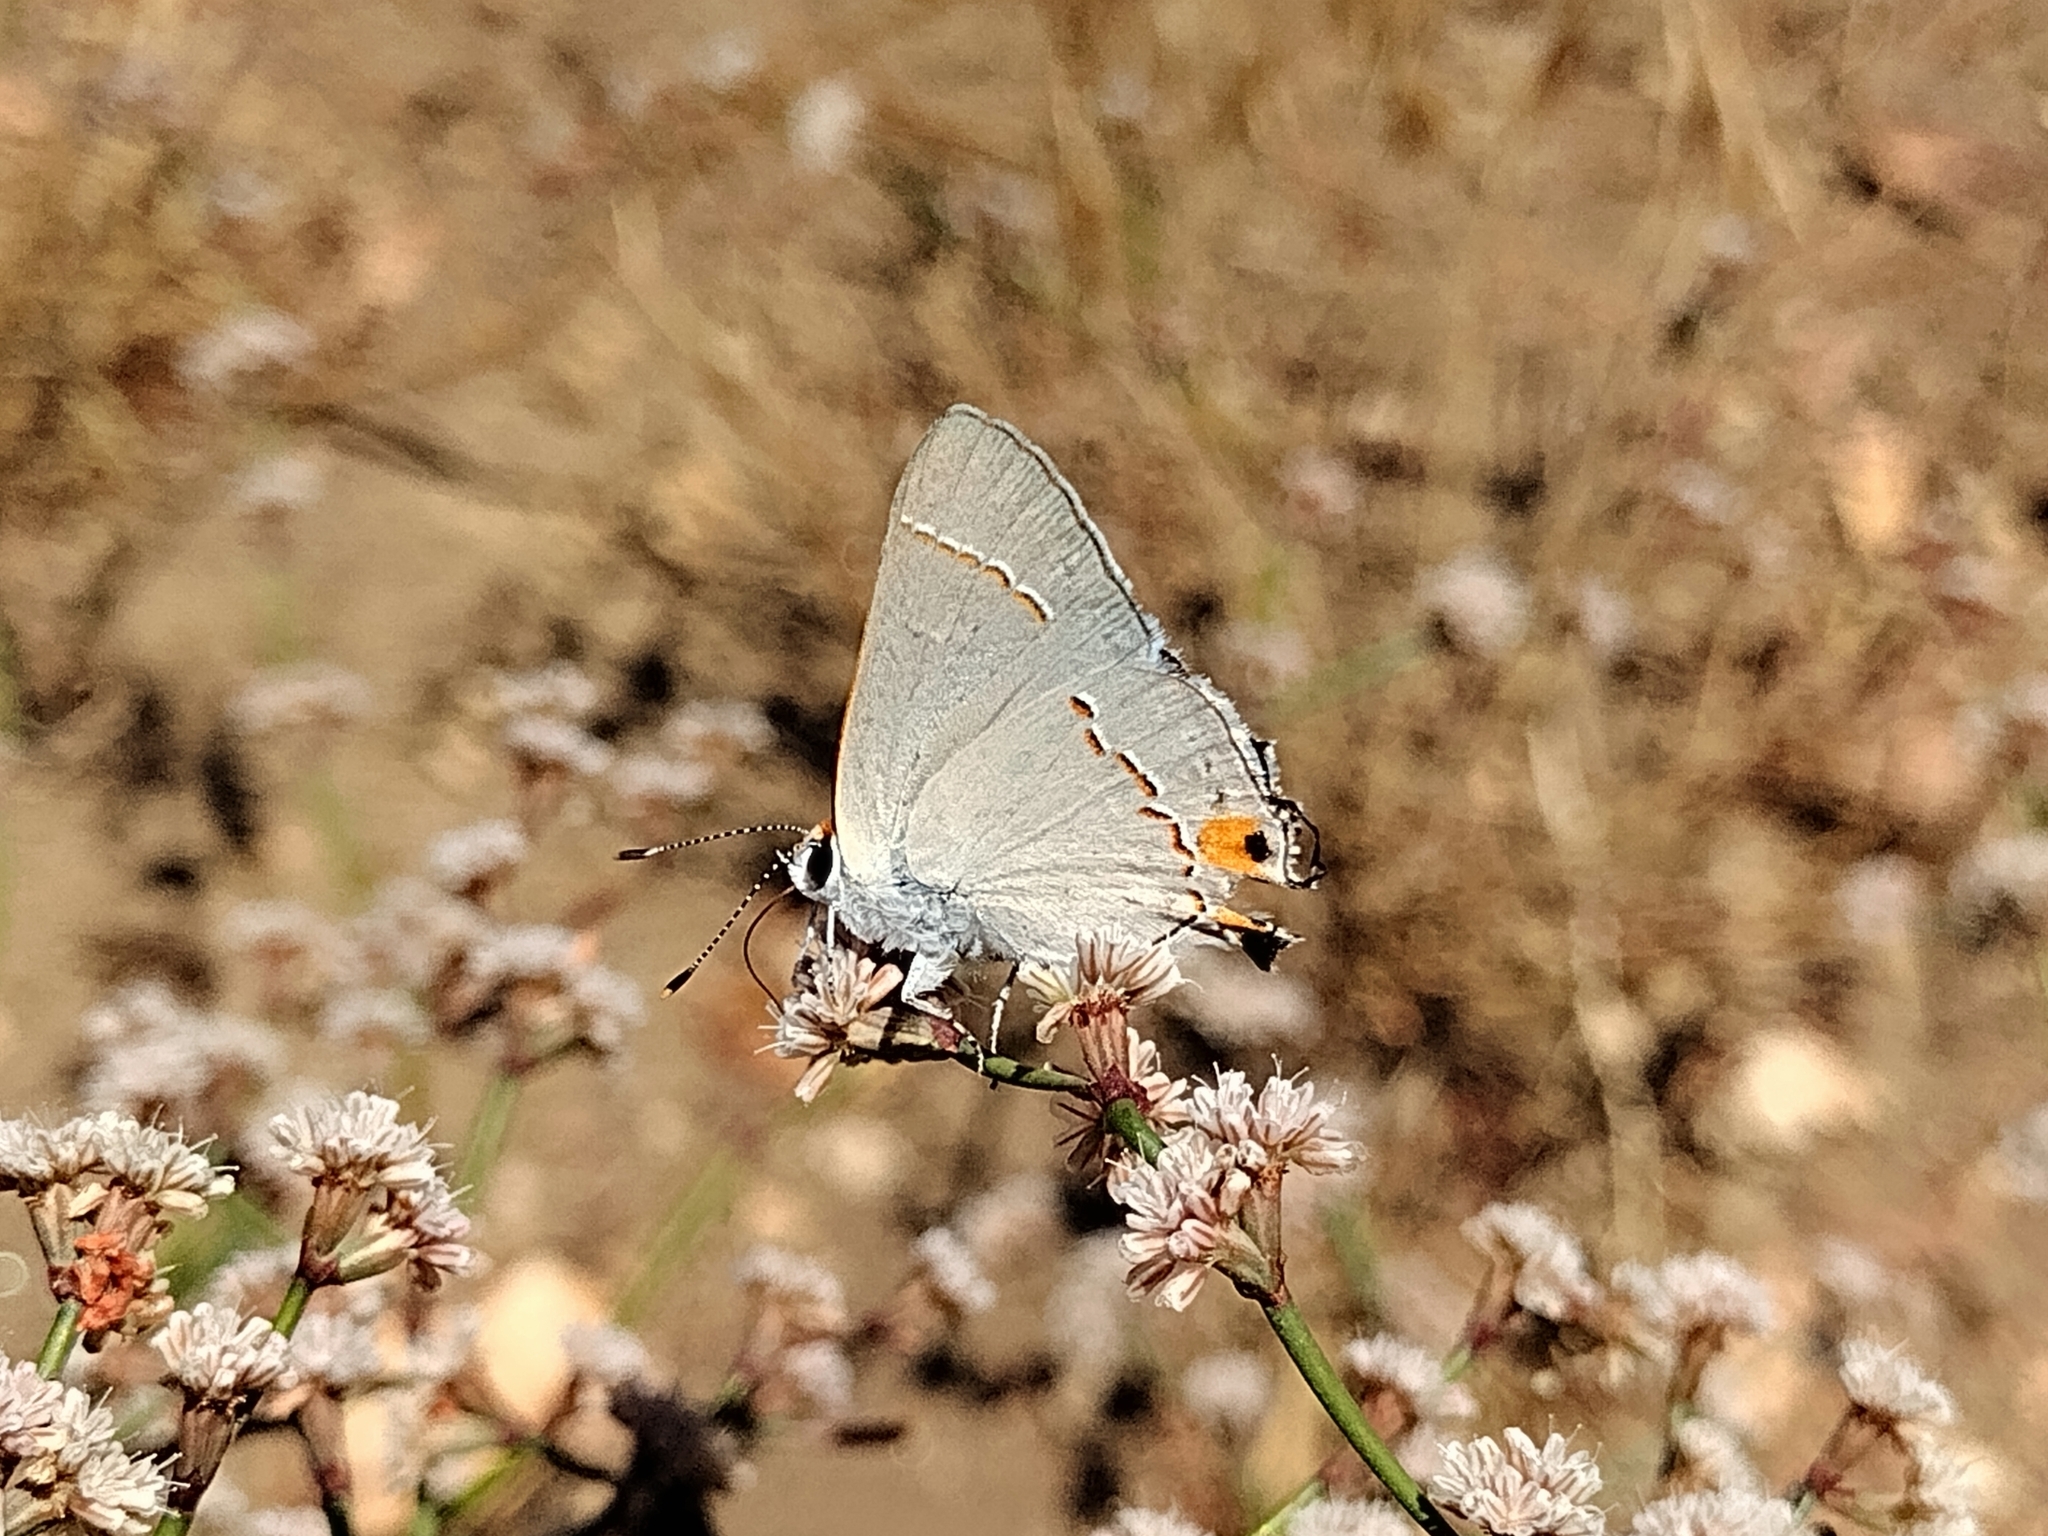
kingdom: Animalia
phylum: Arthropoda
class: Insecta
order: Lepidoptera
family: Lycaenidae
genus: Strymon
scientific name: Strymon melinus
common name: Gray hairstreak
